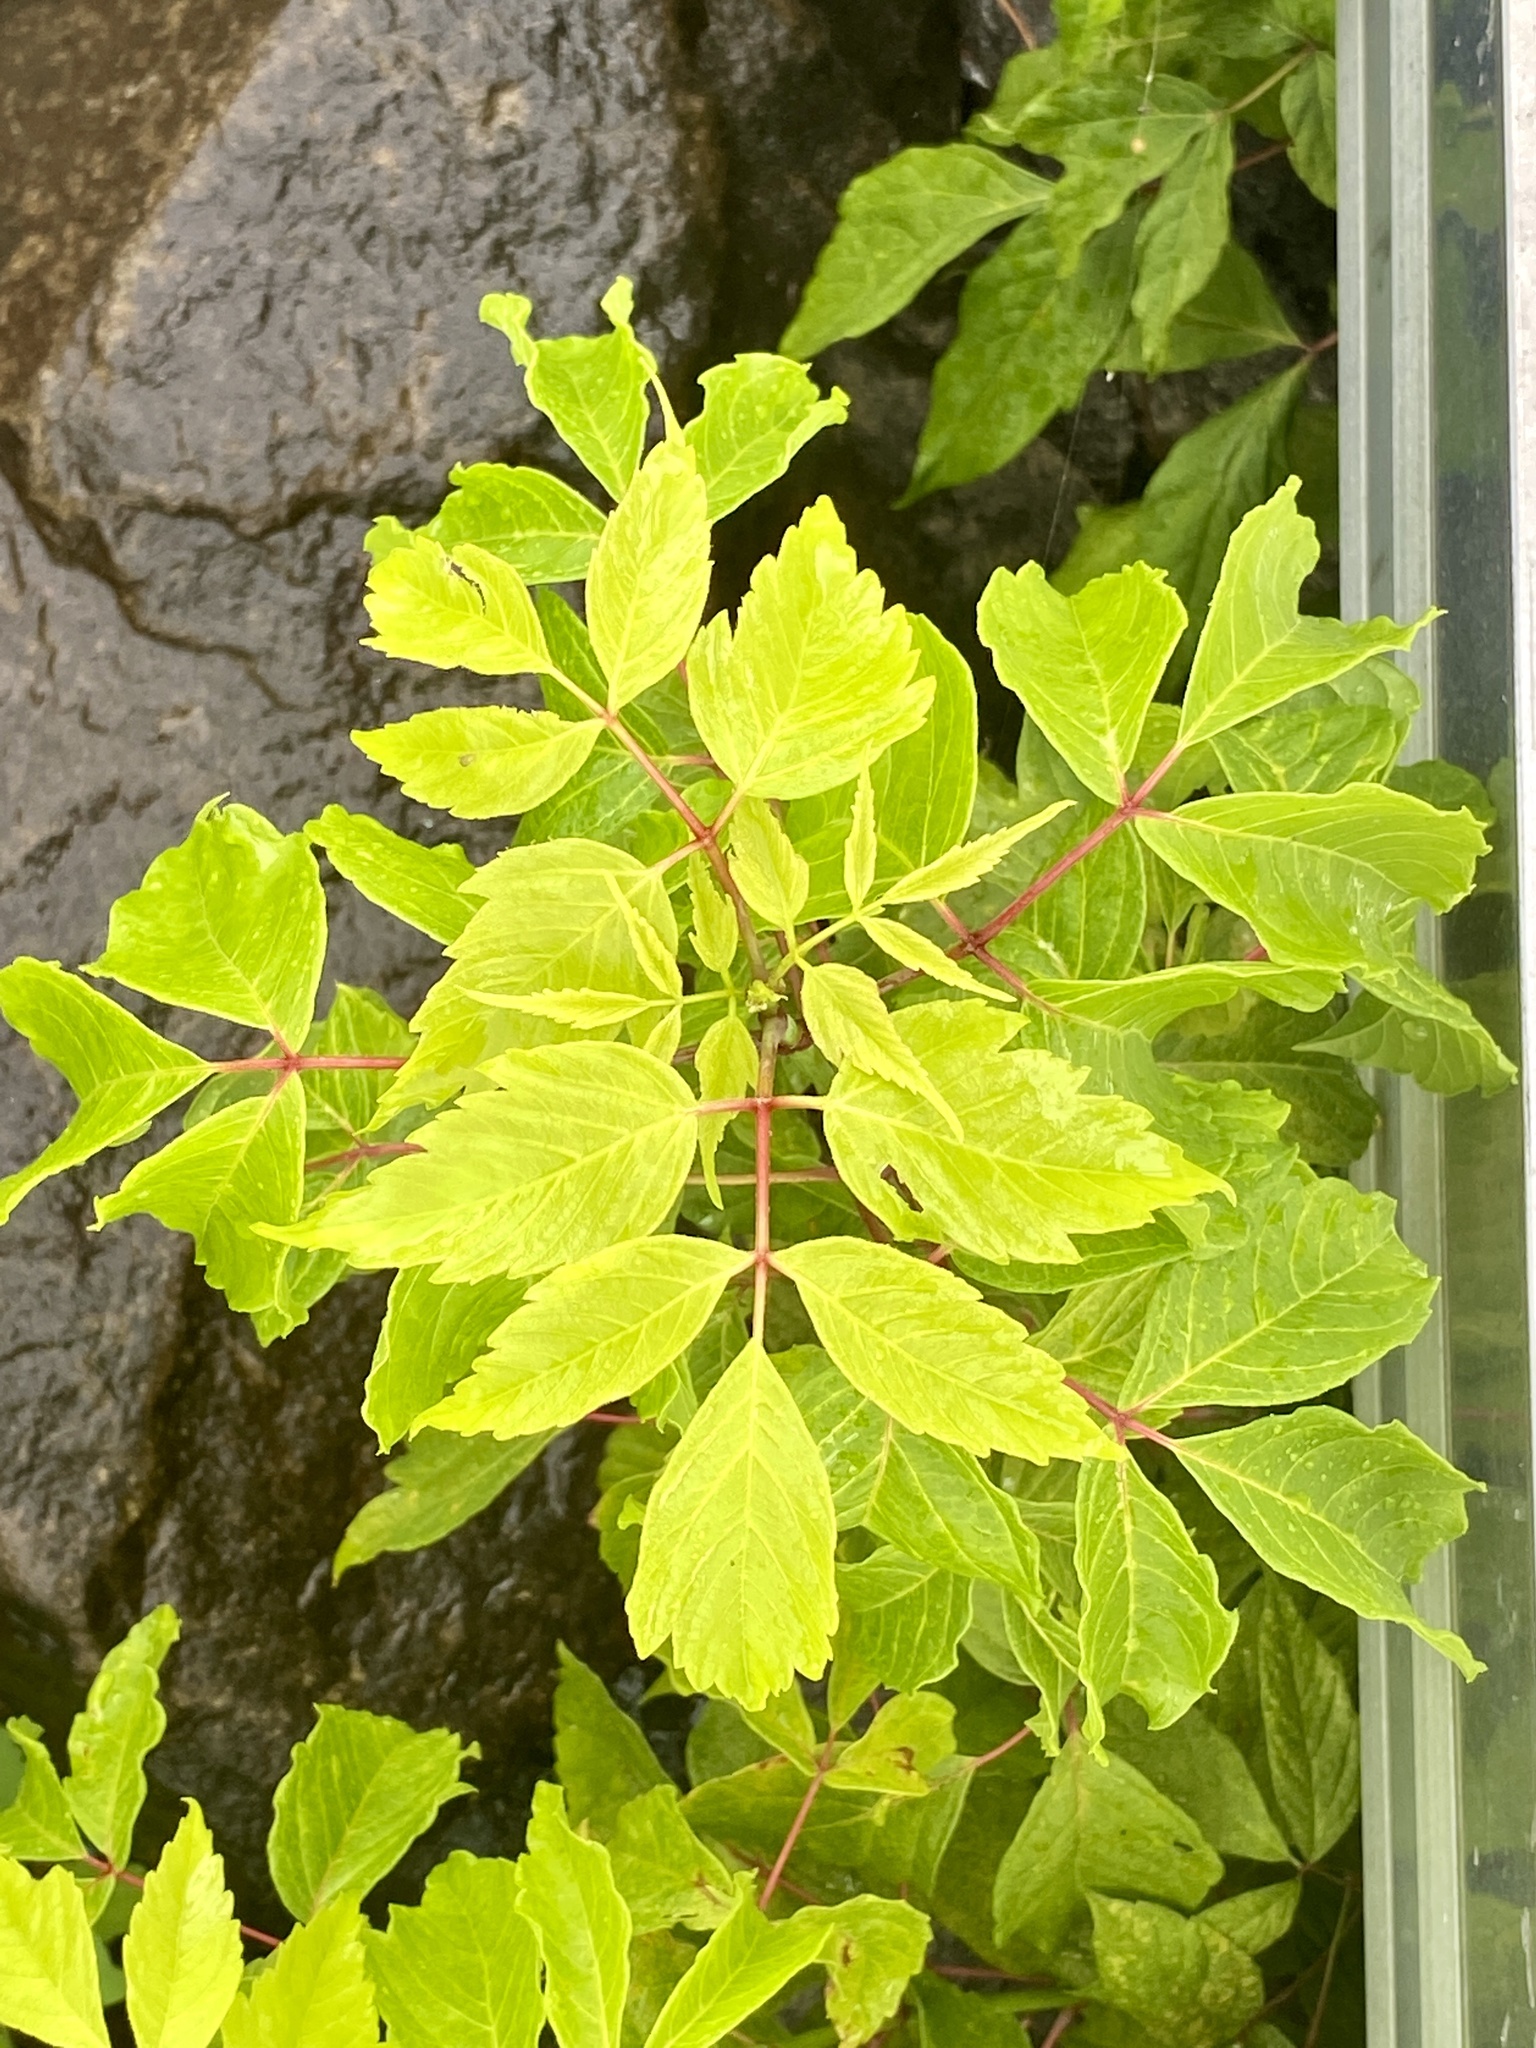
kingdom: Plantae
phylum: Tracheophyta
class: Magnoliopsida
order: Sapindales
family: Sapindaceae
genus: Acer
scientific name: Acer negundo
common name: Ashleaf maple
